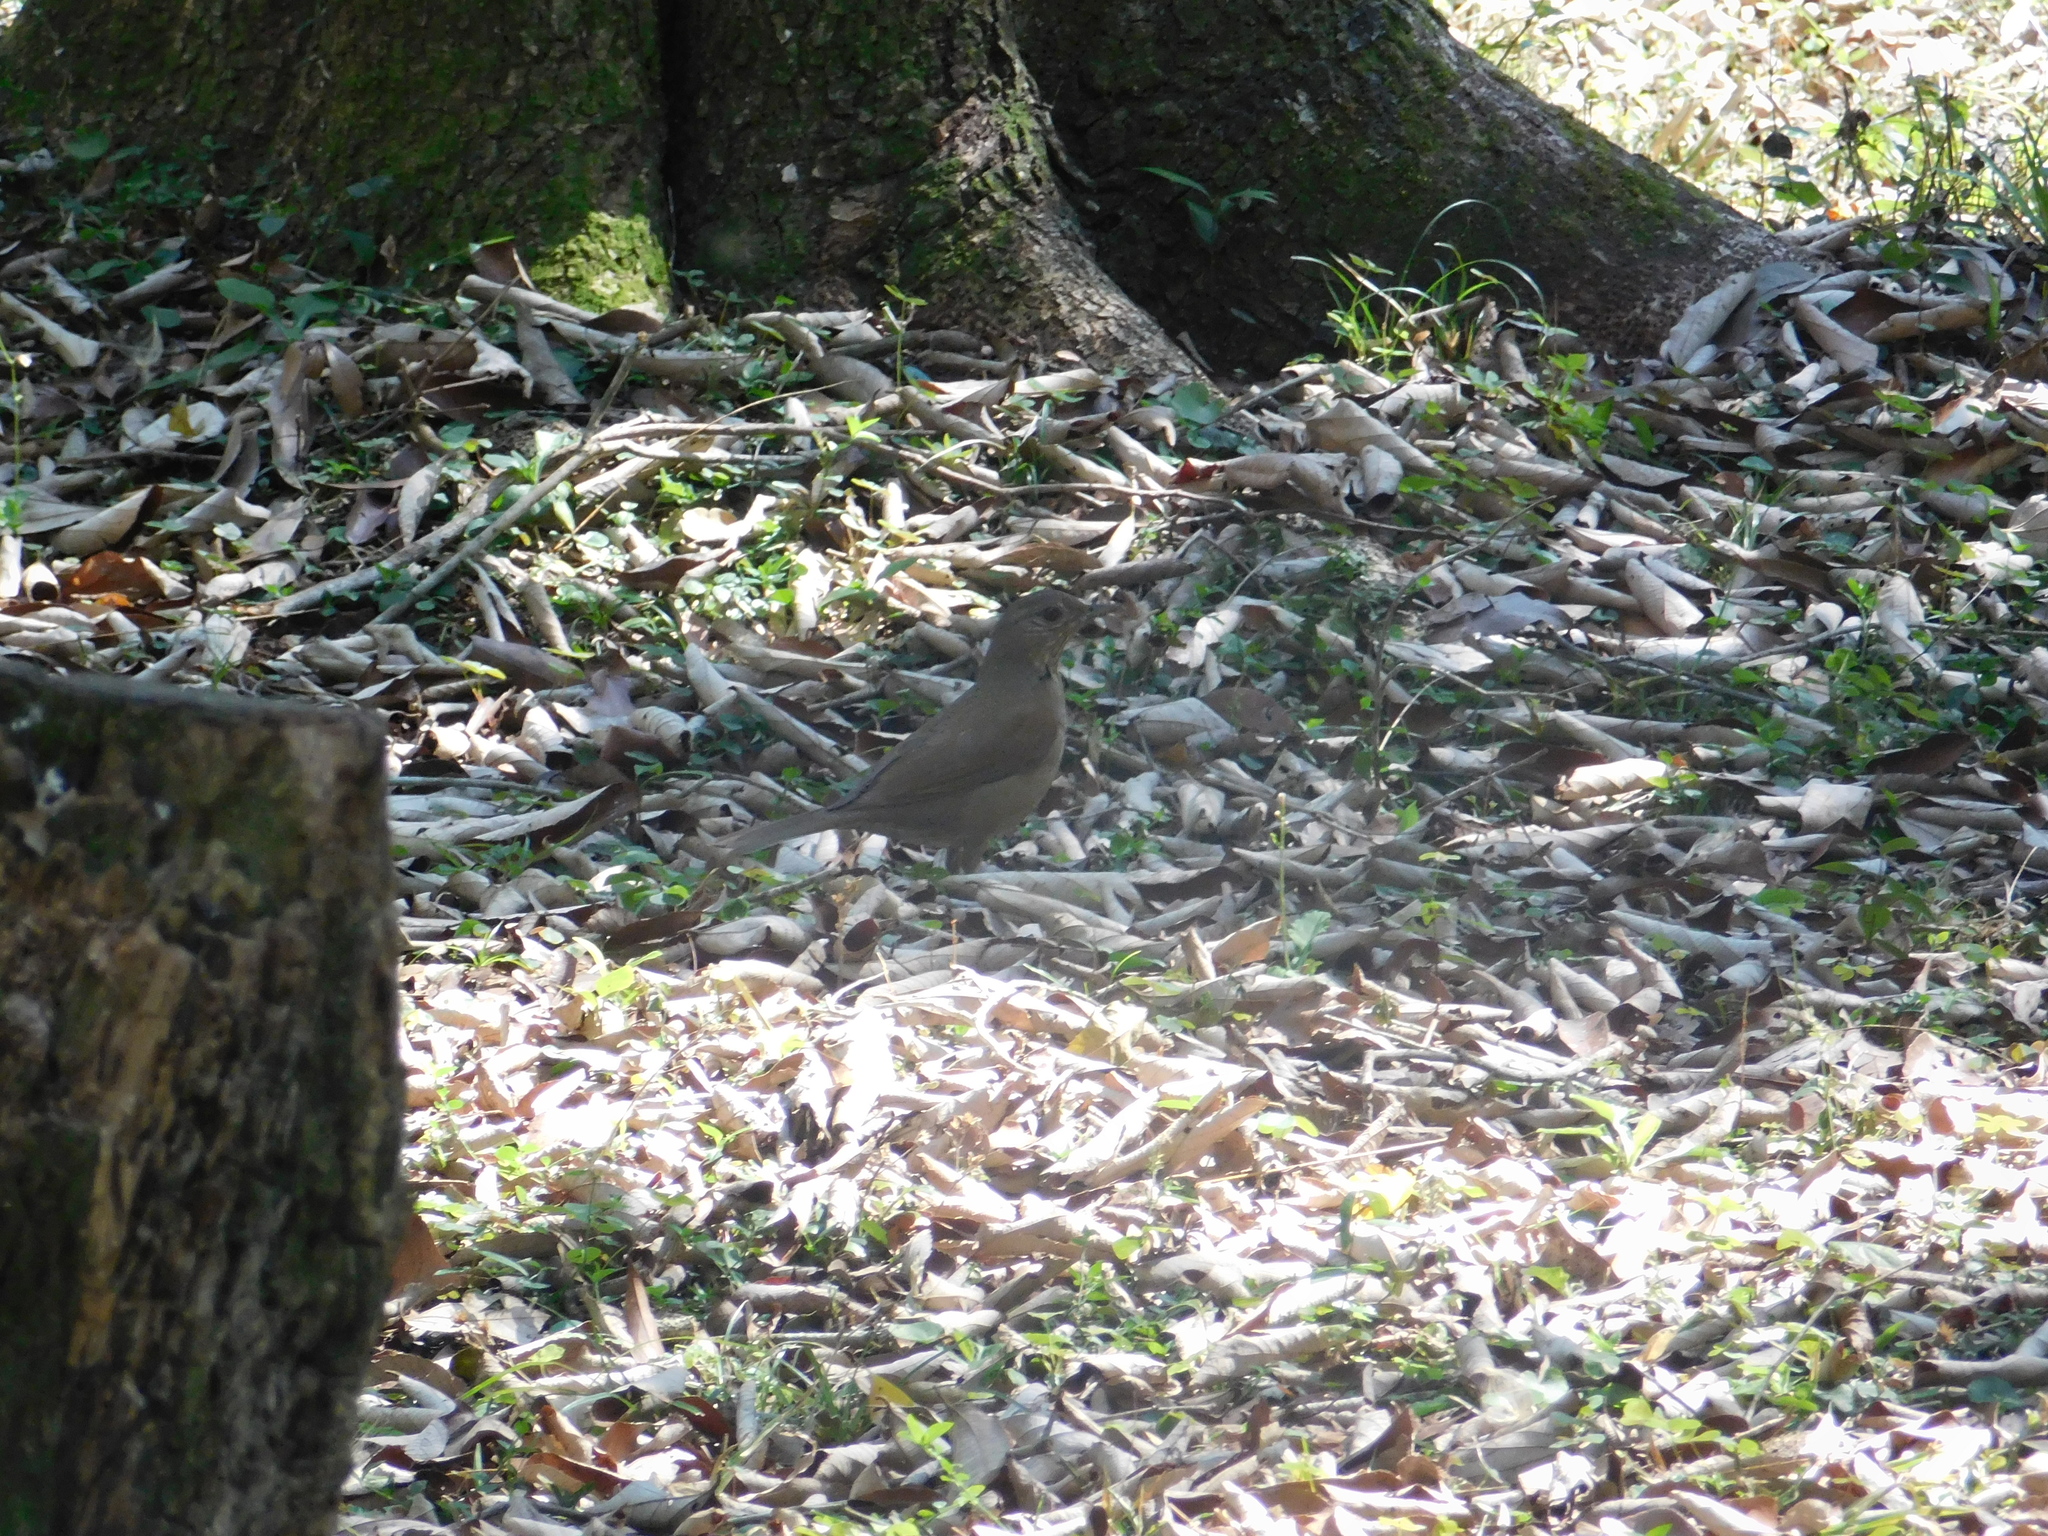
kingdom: Animalia
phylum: Chordata
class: Aves
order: Passeriformes
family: Turdidae
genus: Turdus
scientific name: Turdus leucomelas
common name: Pale-breasted thrush
